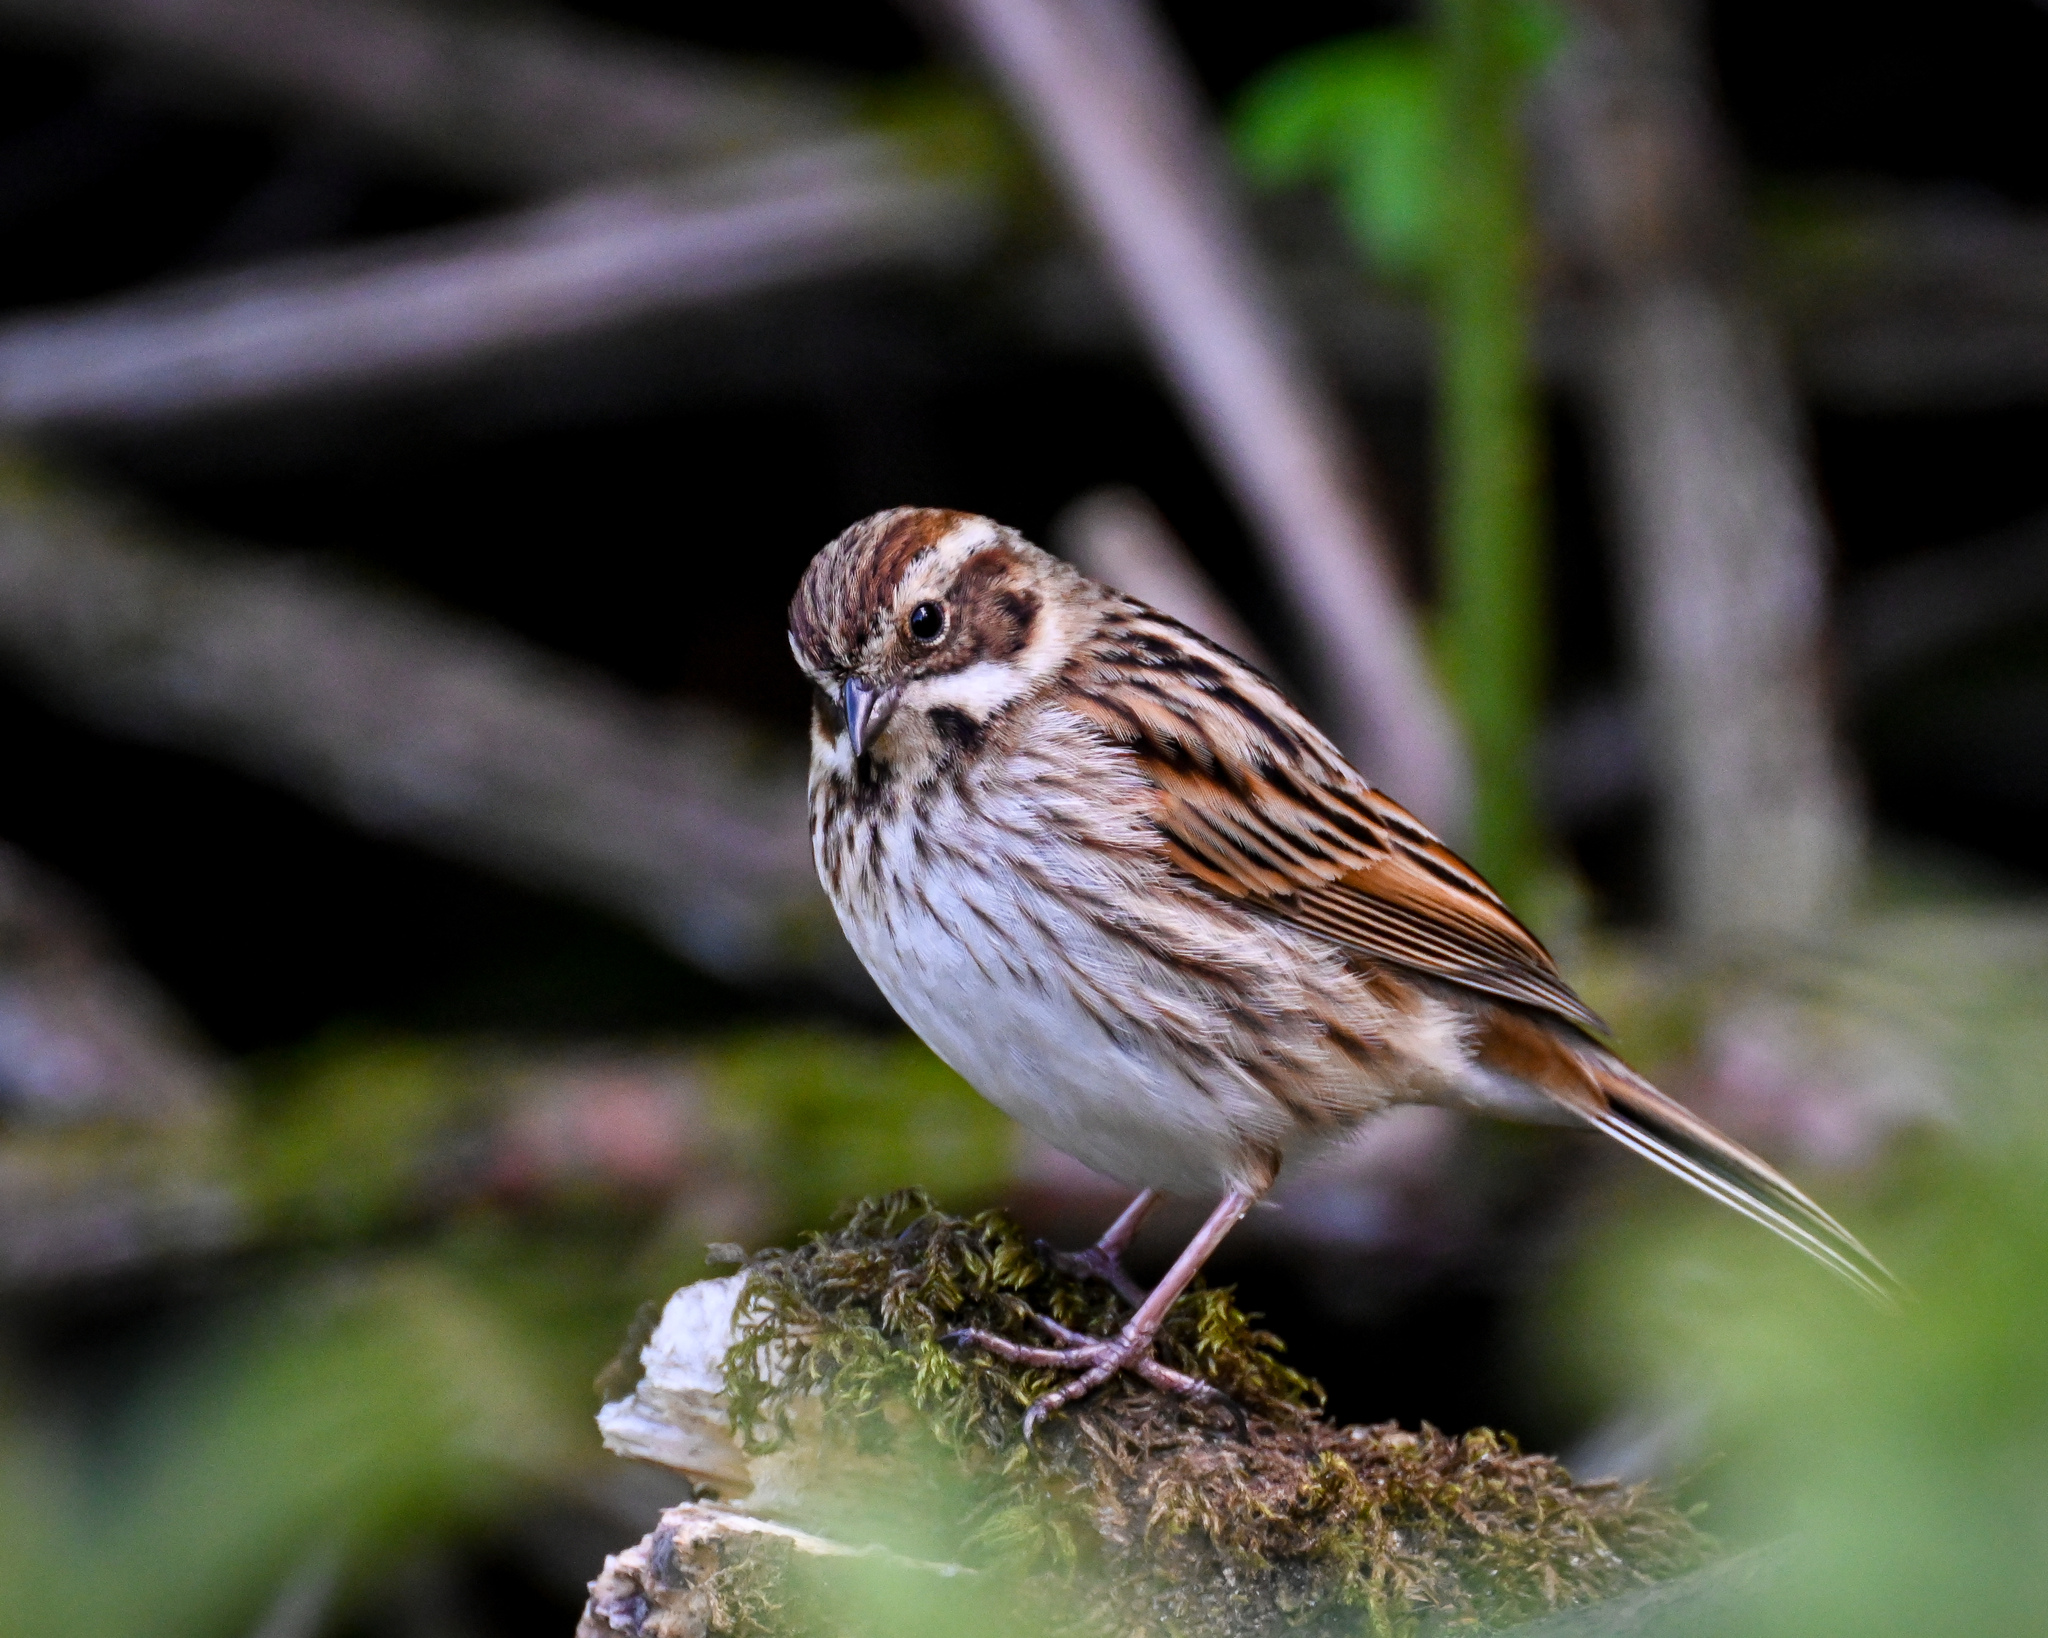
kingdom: Animalia
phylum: Chordata
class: Aves
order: Passeriformes
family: Emberizidae
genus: Emberiza
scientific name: Emberiza schoeniclus
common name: Reed bunting
